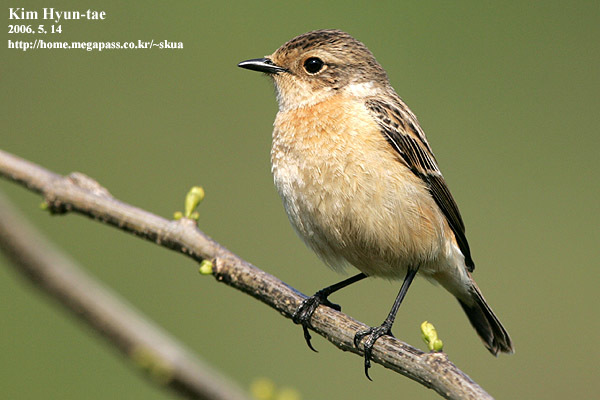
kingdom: Animalia
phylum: Chordata
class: Aves
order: Passeriformes
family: Muscicapidae
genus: Saxicola
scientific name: Saxicola stejnegeri
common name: Stejneger's stonechat
